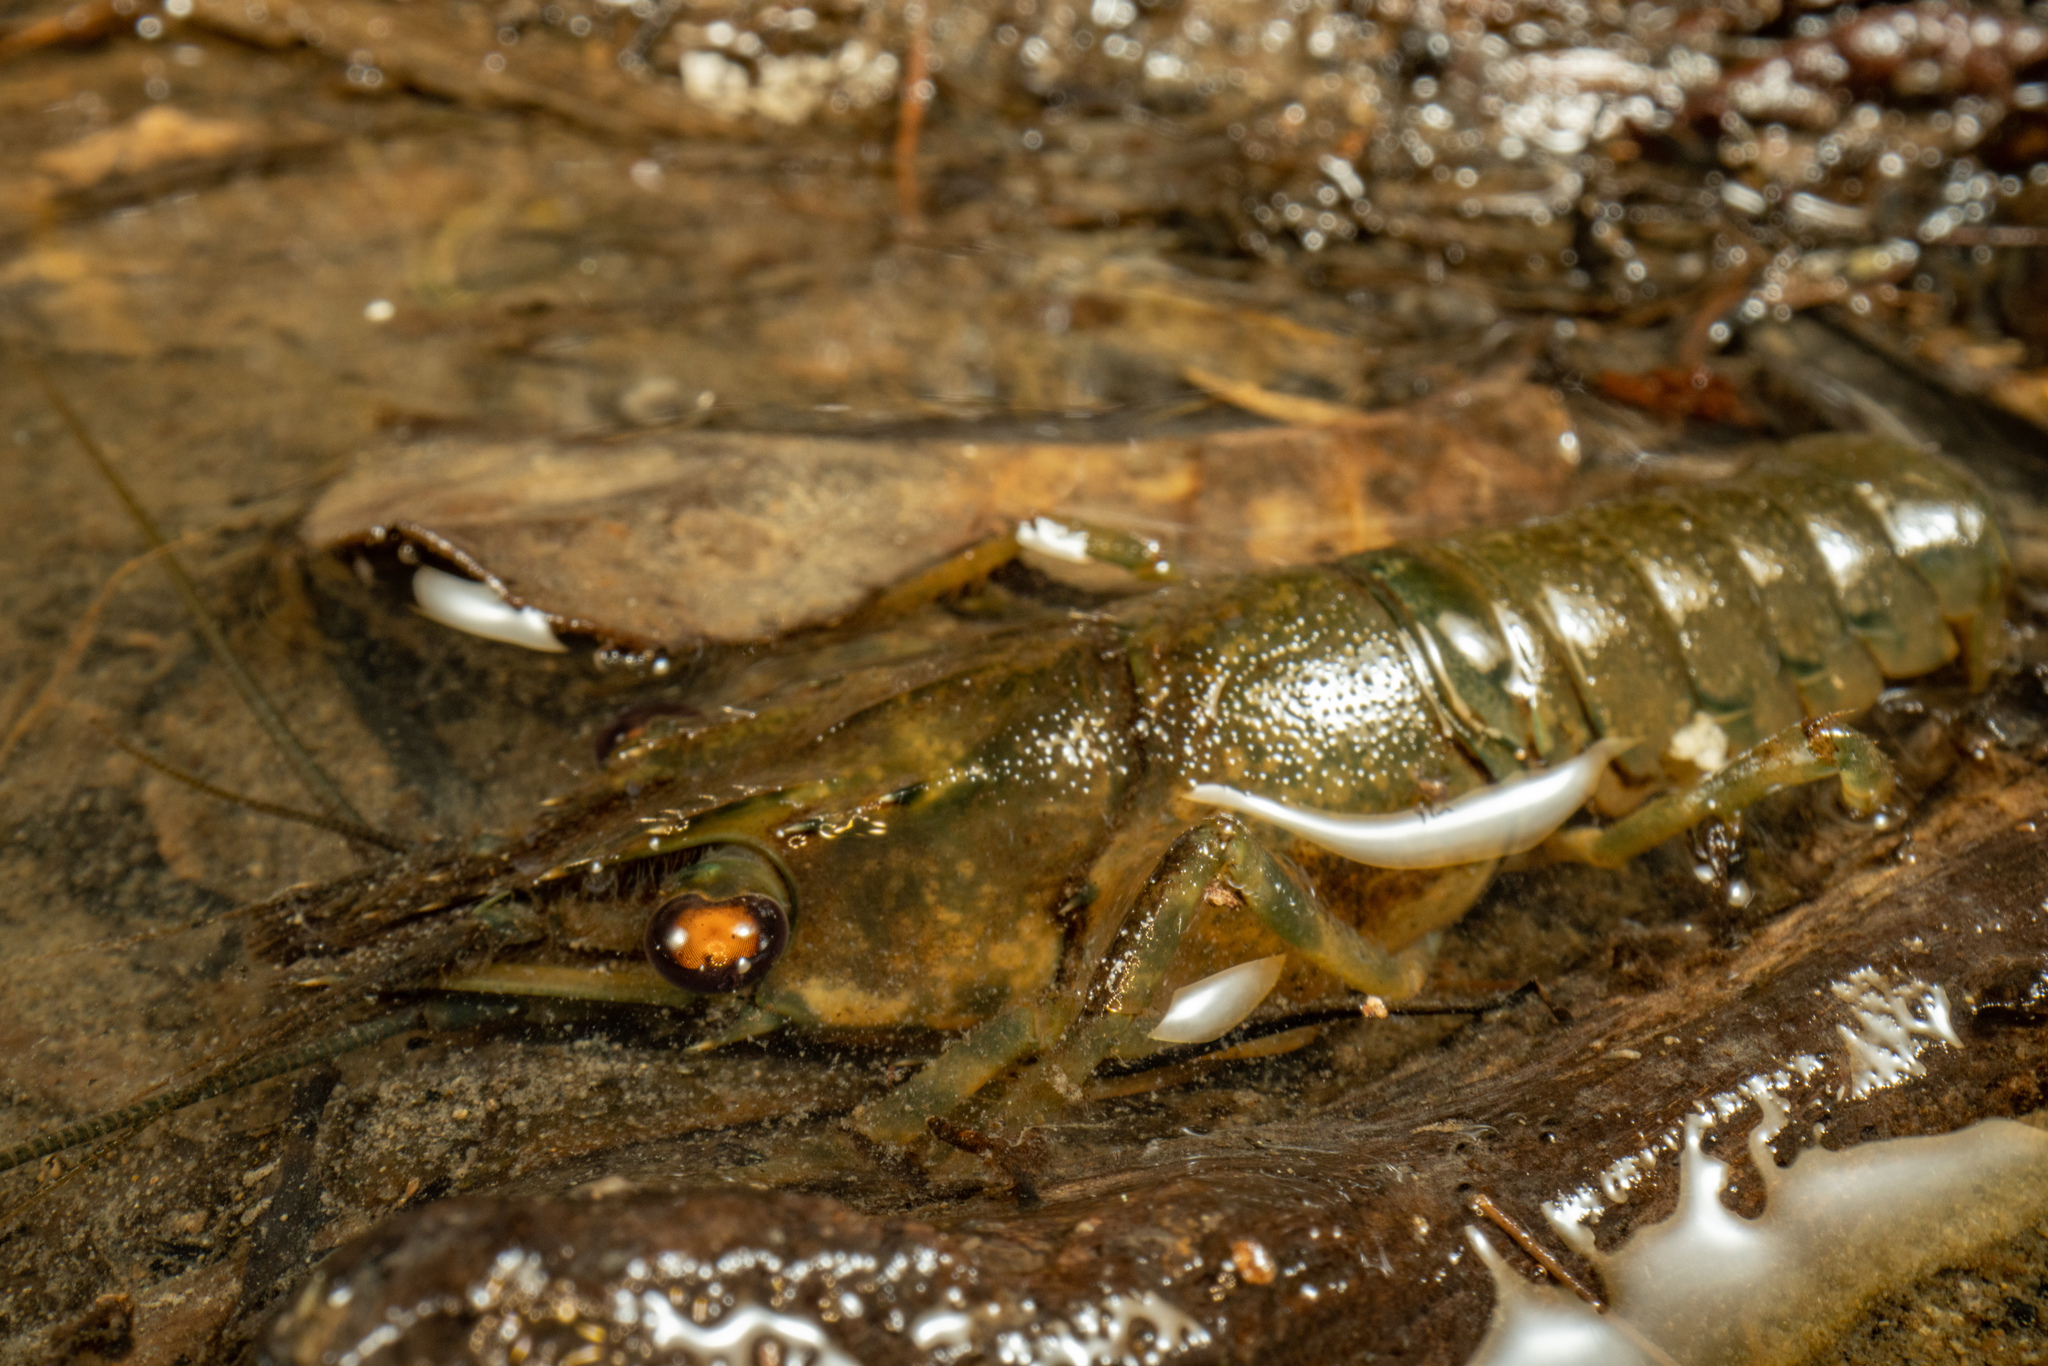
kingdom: Animalia
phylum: Arthropoda
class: Malacostraca
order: Decapoda
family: Parastacidae
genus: Paranephrops
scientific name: Paranephrops planifrons
